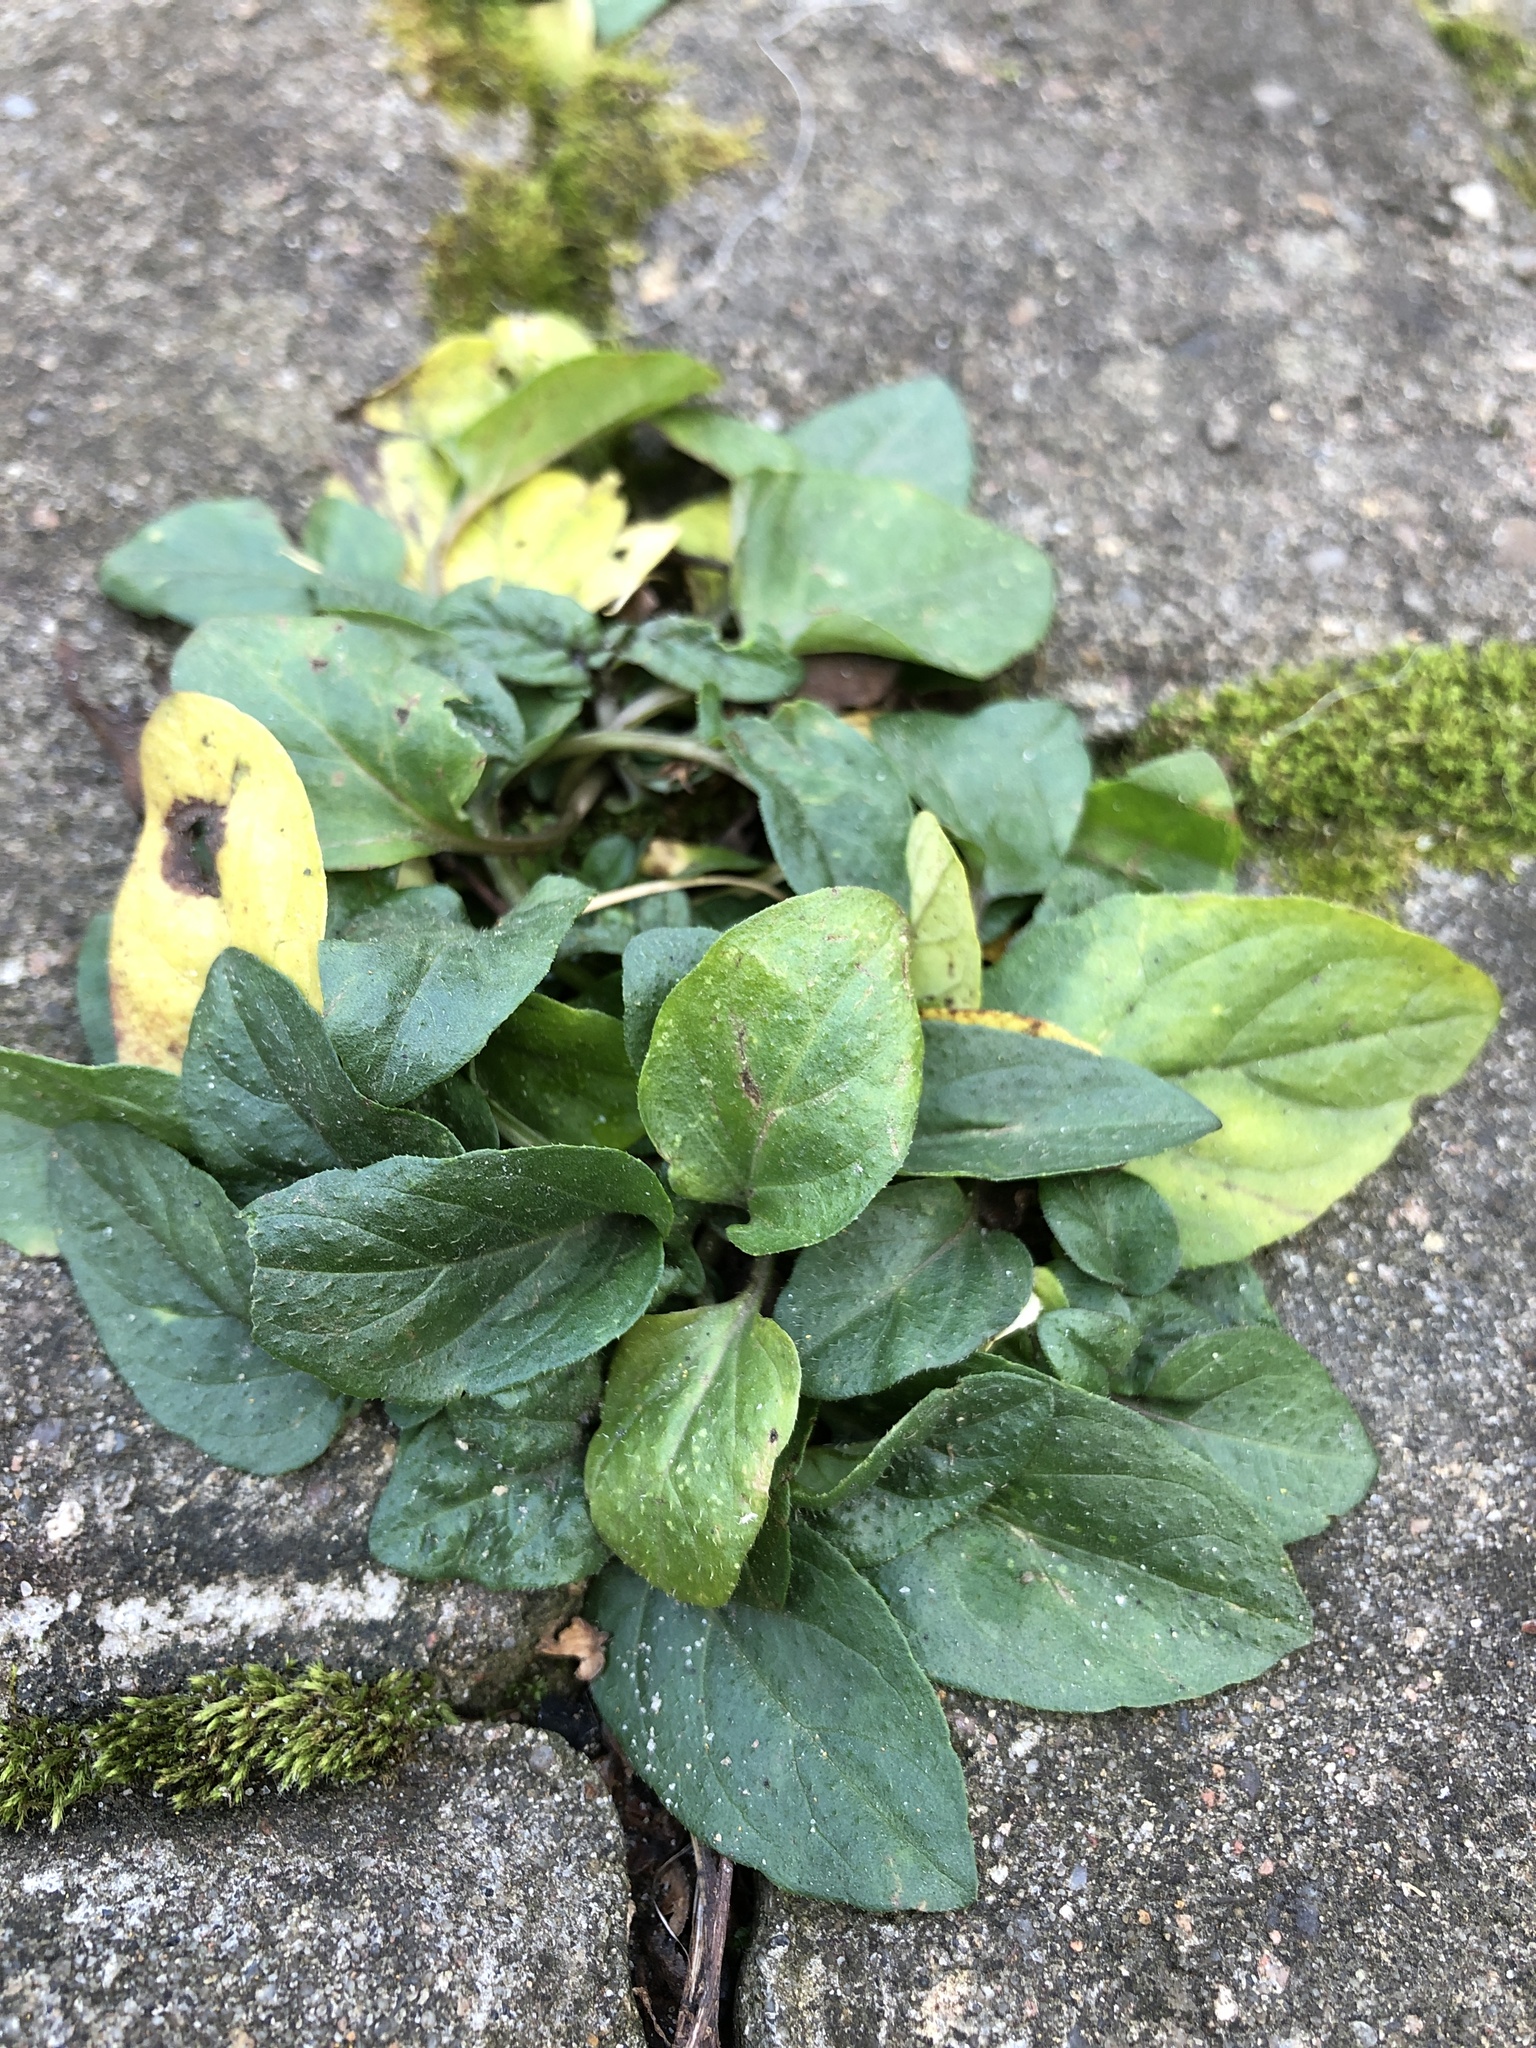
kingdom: Plantae
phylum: Tracheophyta
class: Magnoliopsida
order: Lamiales
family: Lamiaceae
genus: Prunella
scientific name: Prunella vulgaris
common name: Heal-all
